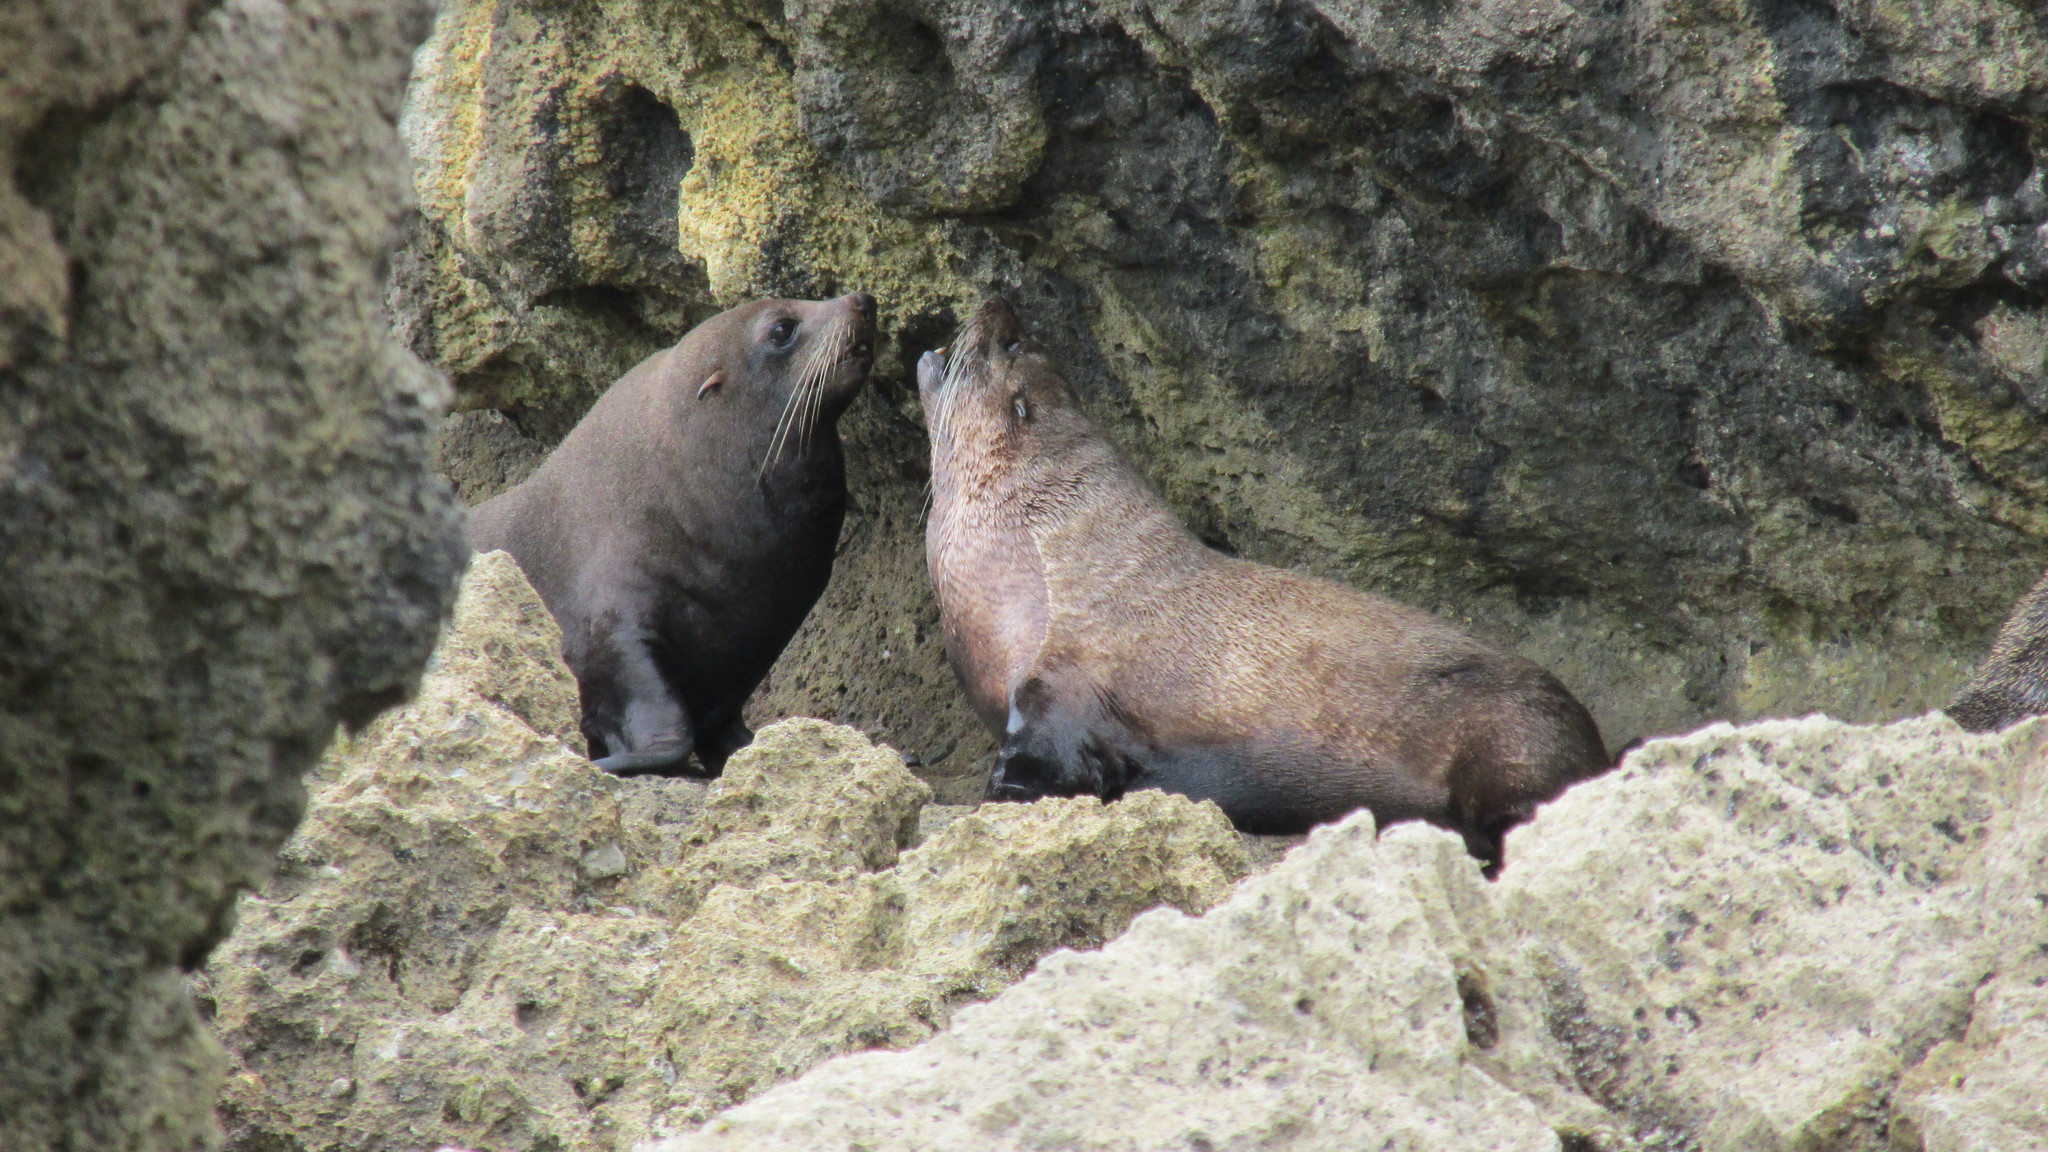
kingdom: Animalia
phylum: Chordata
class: Mammalia
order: Carnivora
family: Otariidae
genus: Arctocephalus
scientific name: Arctocephalus forsteri
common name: New zealand fur seal
